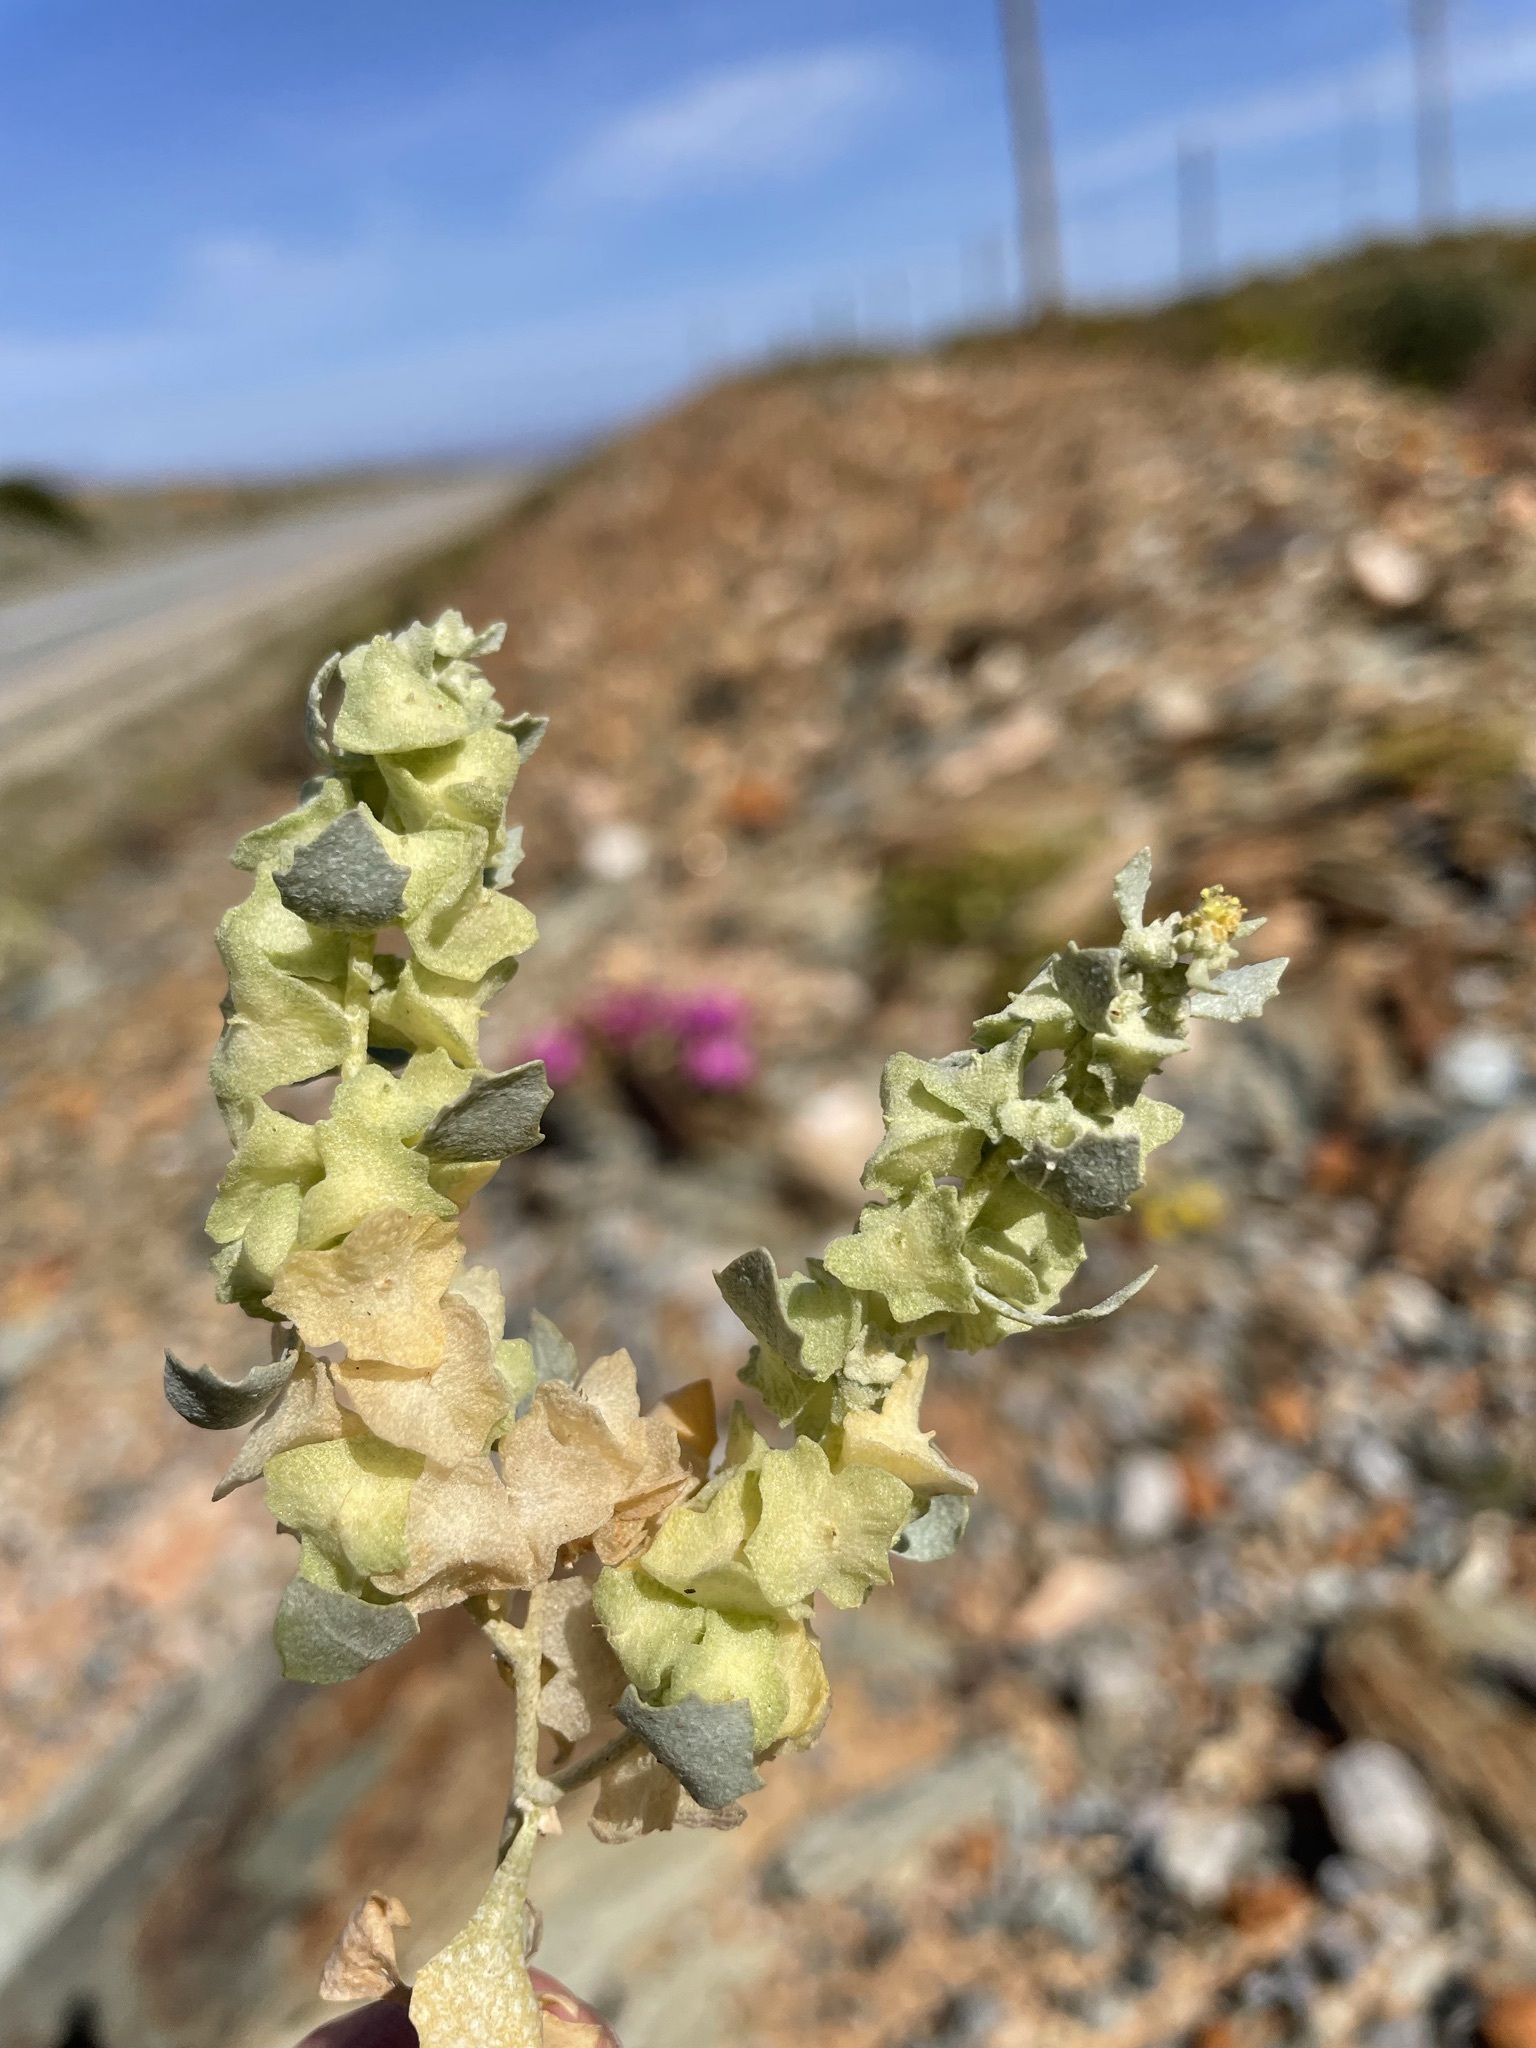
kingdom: Plantae
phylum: Tracheophyta
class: Magnoliopsida
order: Caryophyllales
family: Amaranthaceae
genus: Atriplex
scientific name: Atriplex lindleyi
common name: Lindley's saltbush
